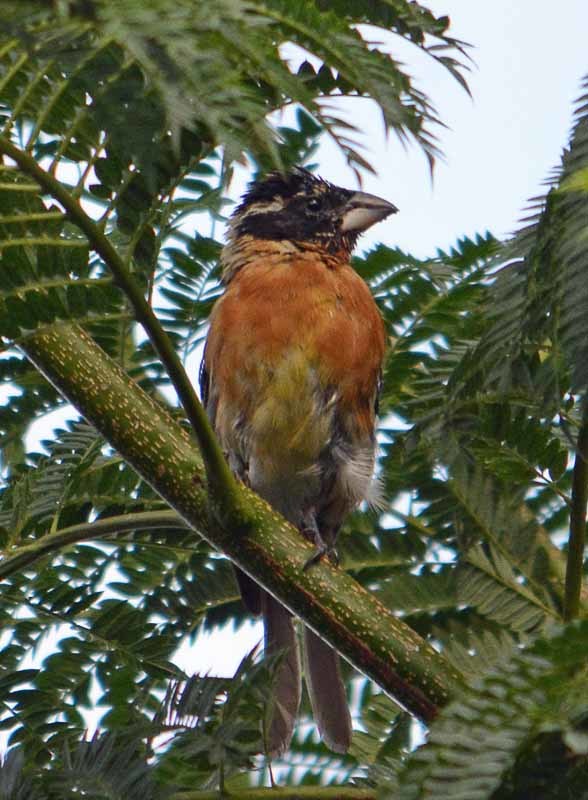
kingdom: Animalia
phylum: Chordata
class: Aves
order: Passeriformes
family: Cardinalidae
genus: Pheucticus
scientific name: Pheucticus melanocephalus
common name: Black-headed grosbeak
